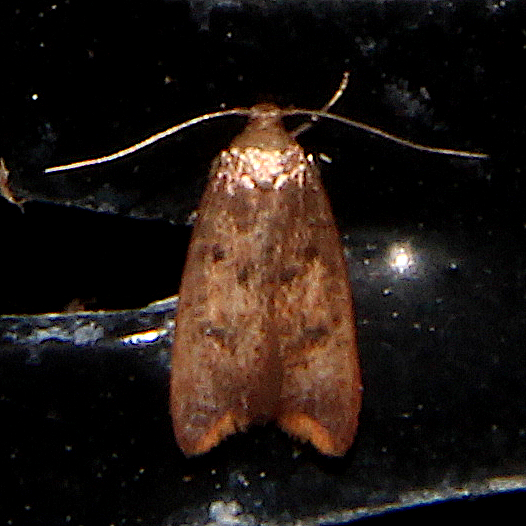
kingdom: Animalia
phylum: Arthropoda
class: Insecta
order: Lepidoptera
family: Oecophoridae
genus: Tachystola
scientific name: Tachystola acroxantha
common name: Ruddy streak
